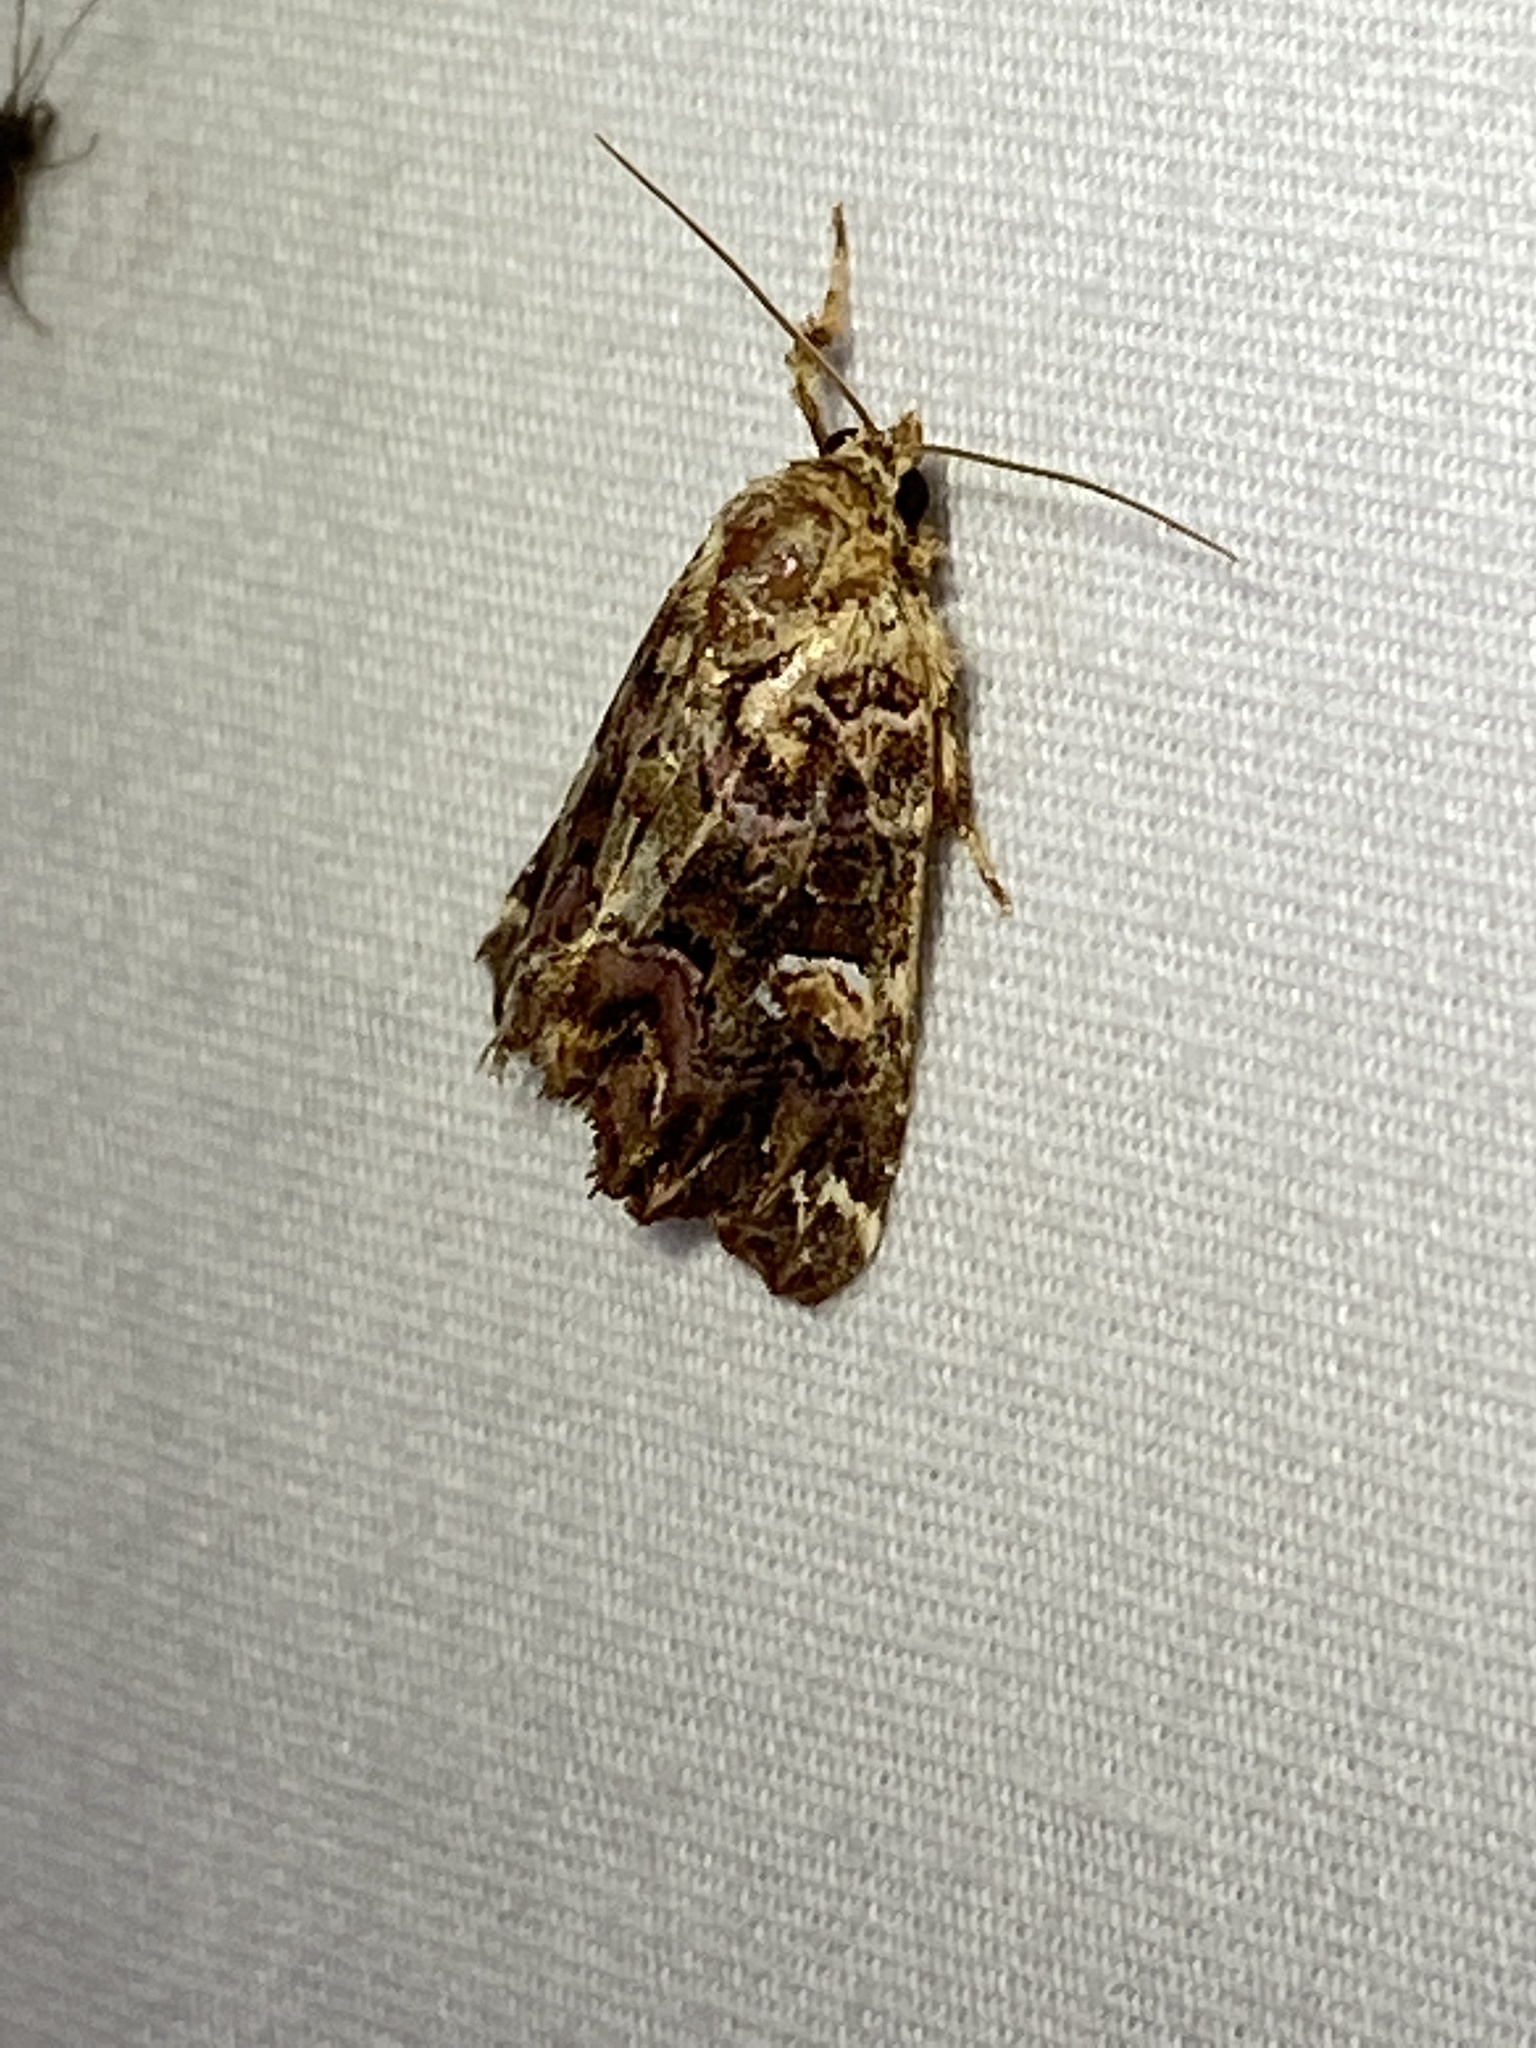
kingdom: Animalia
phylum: Arthropoda
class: Insecta
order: Lepidoptera
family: Noctuidae
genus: Callopistria
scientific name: Callopistria mollissima
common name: Pink-shaded fern moth
